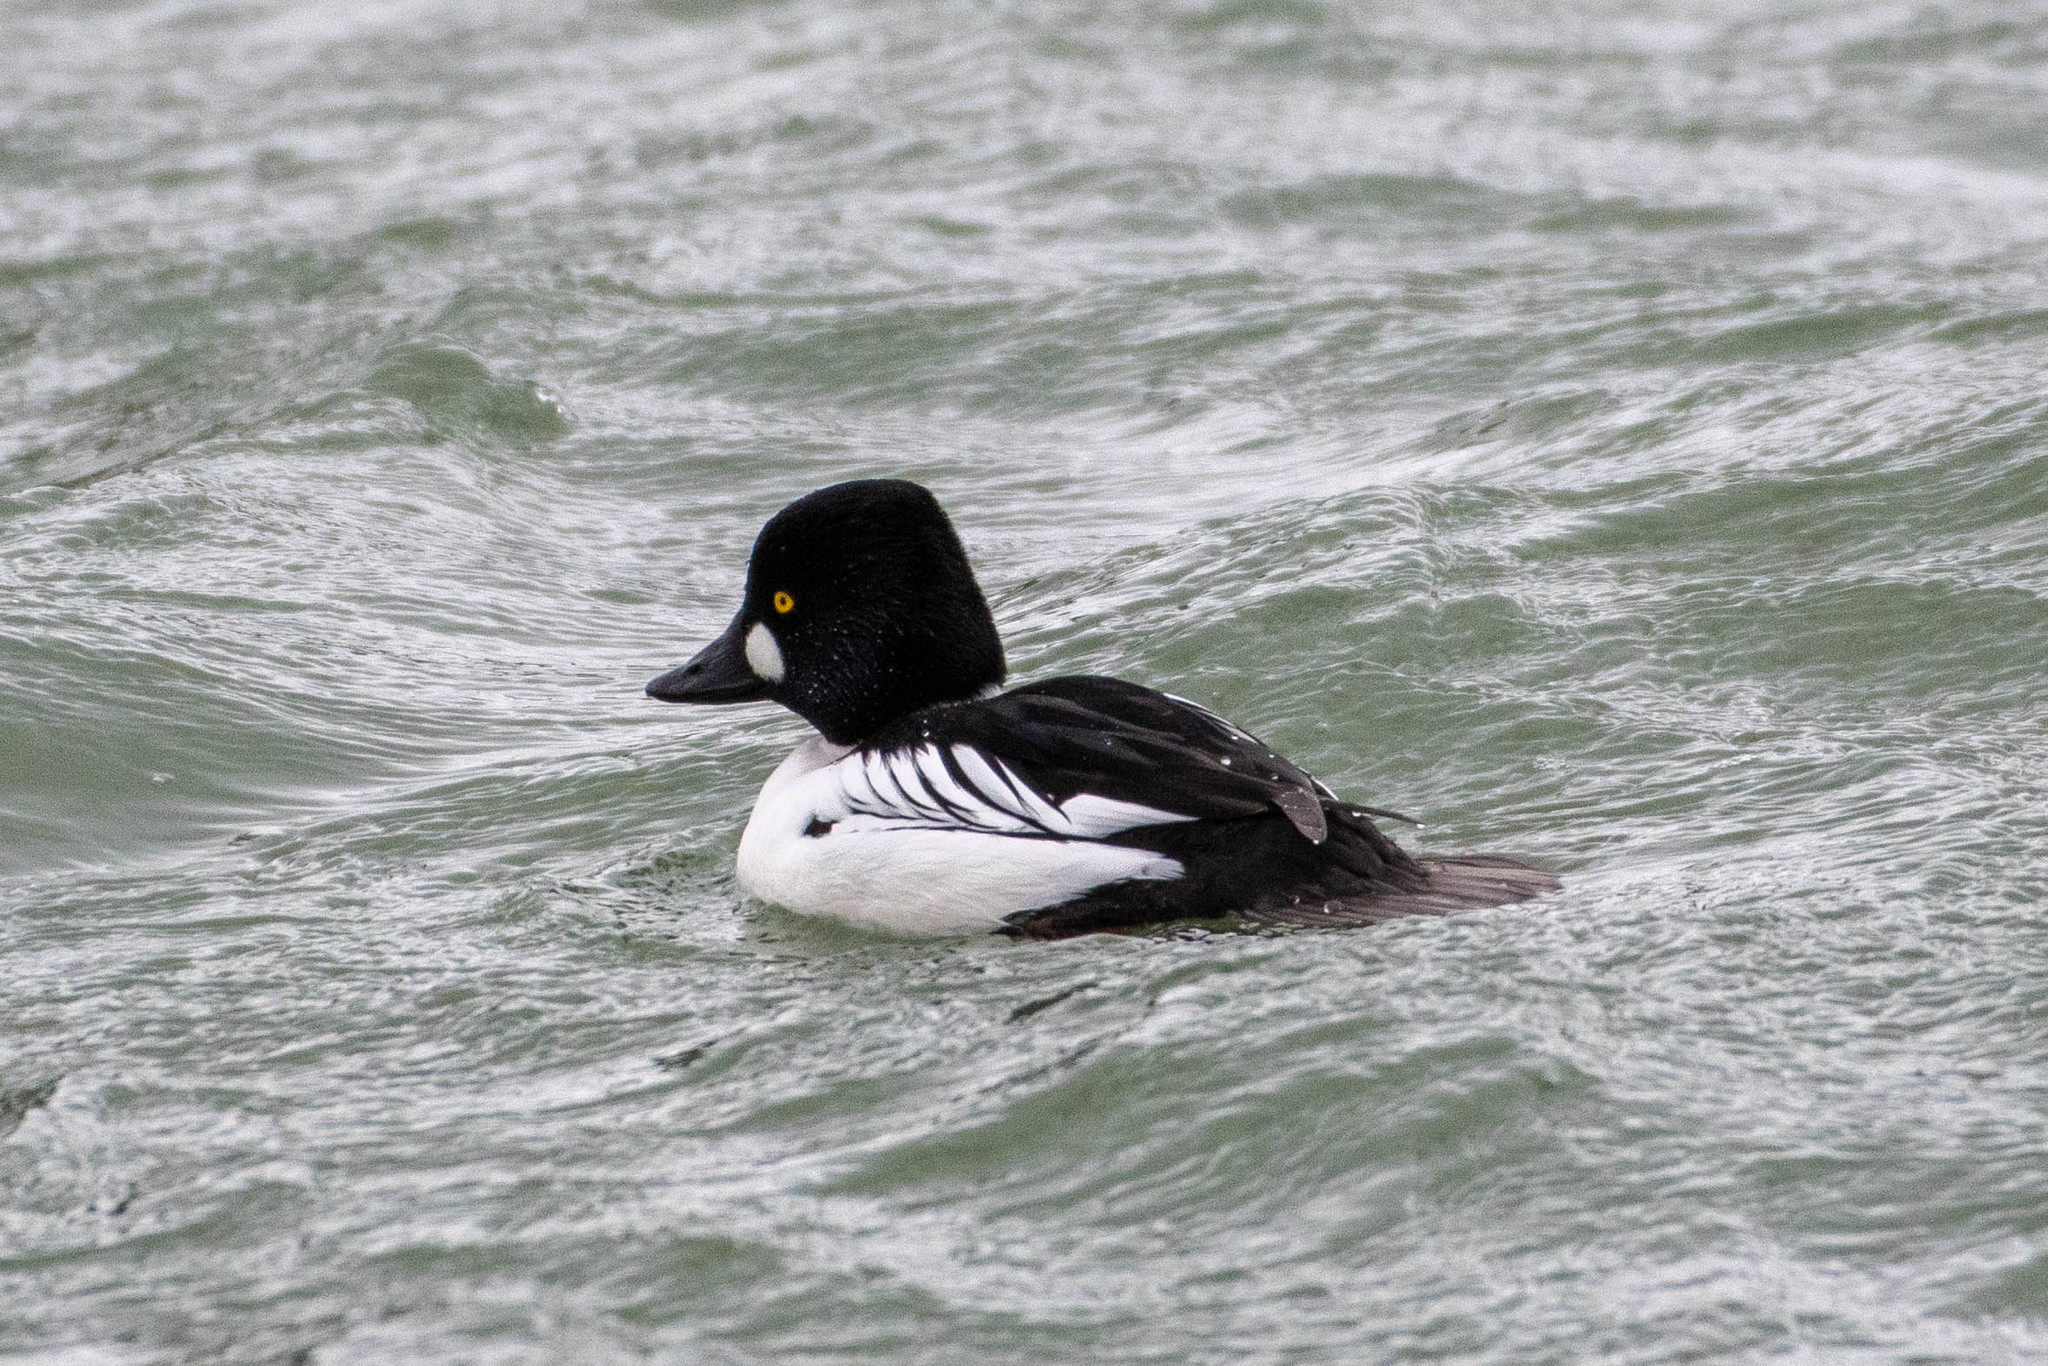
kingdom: Animalia
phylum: Chordata
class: Aves
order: Anseriformes
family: Anatidae
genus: Bucephala
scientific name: Bucephala clangula
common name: Common goldeneye
